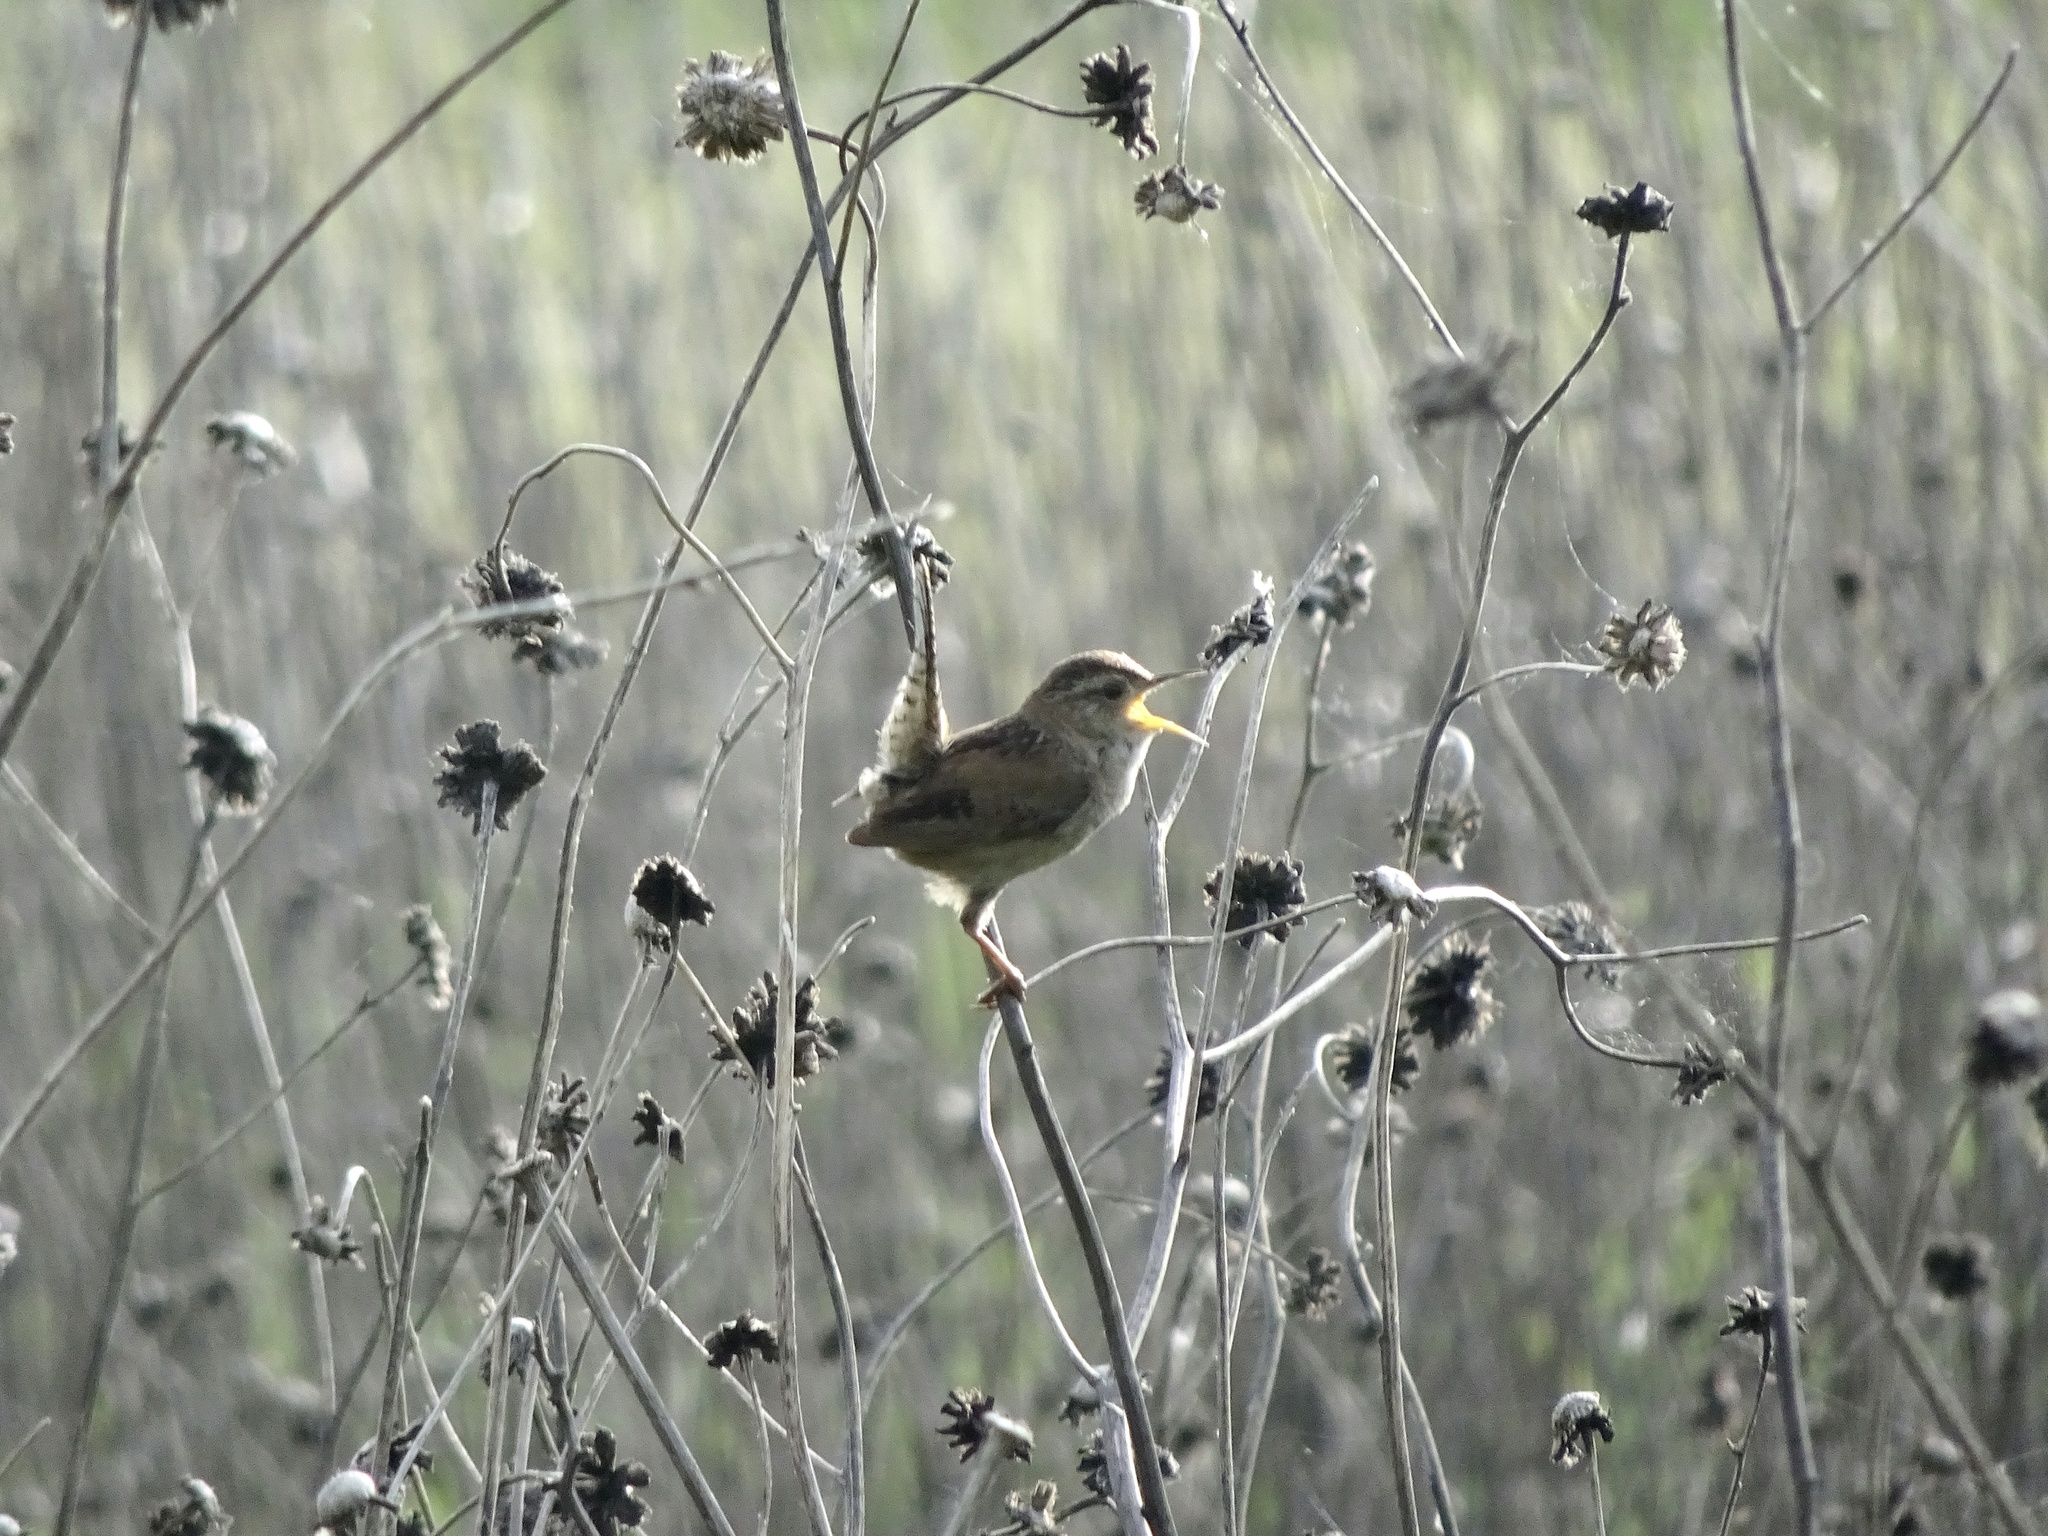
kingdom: Animalia
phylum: Chordata
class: Aves
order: Passeriformes
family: Troglodytidae
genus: Cistothorus
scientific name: Cistothorus palustris
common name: Marsh wren
